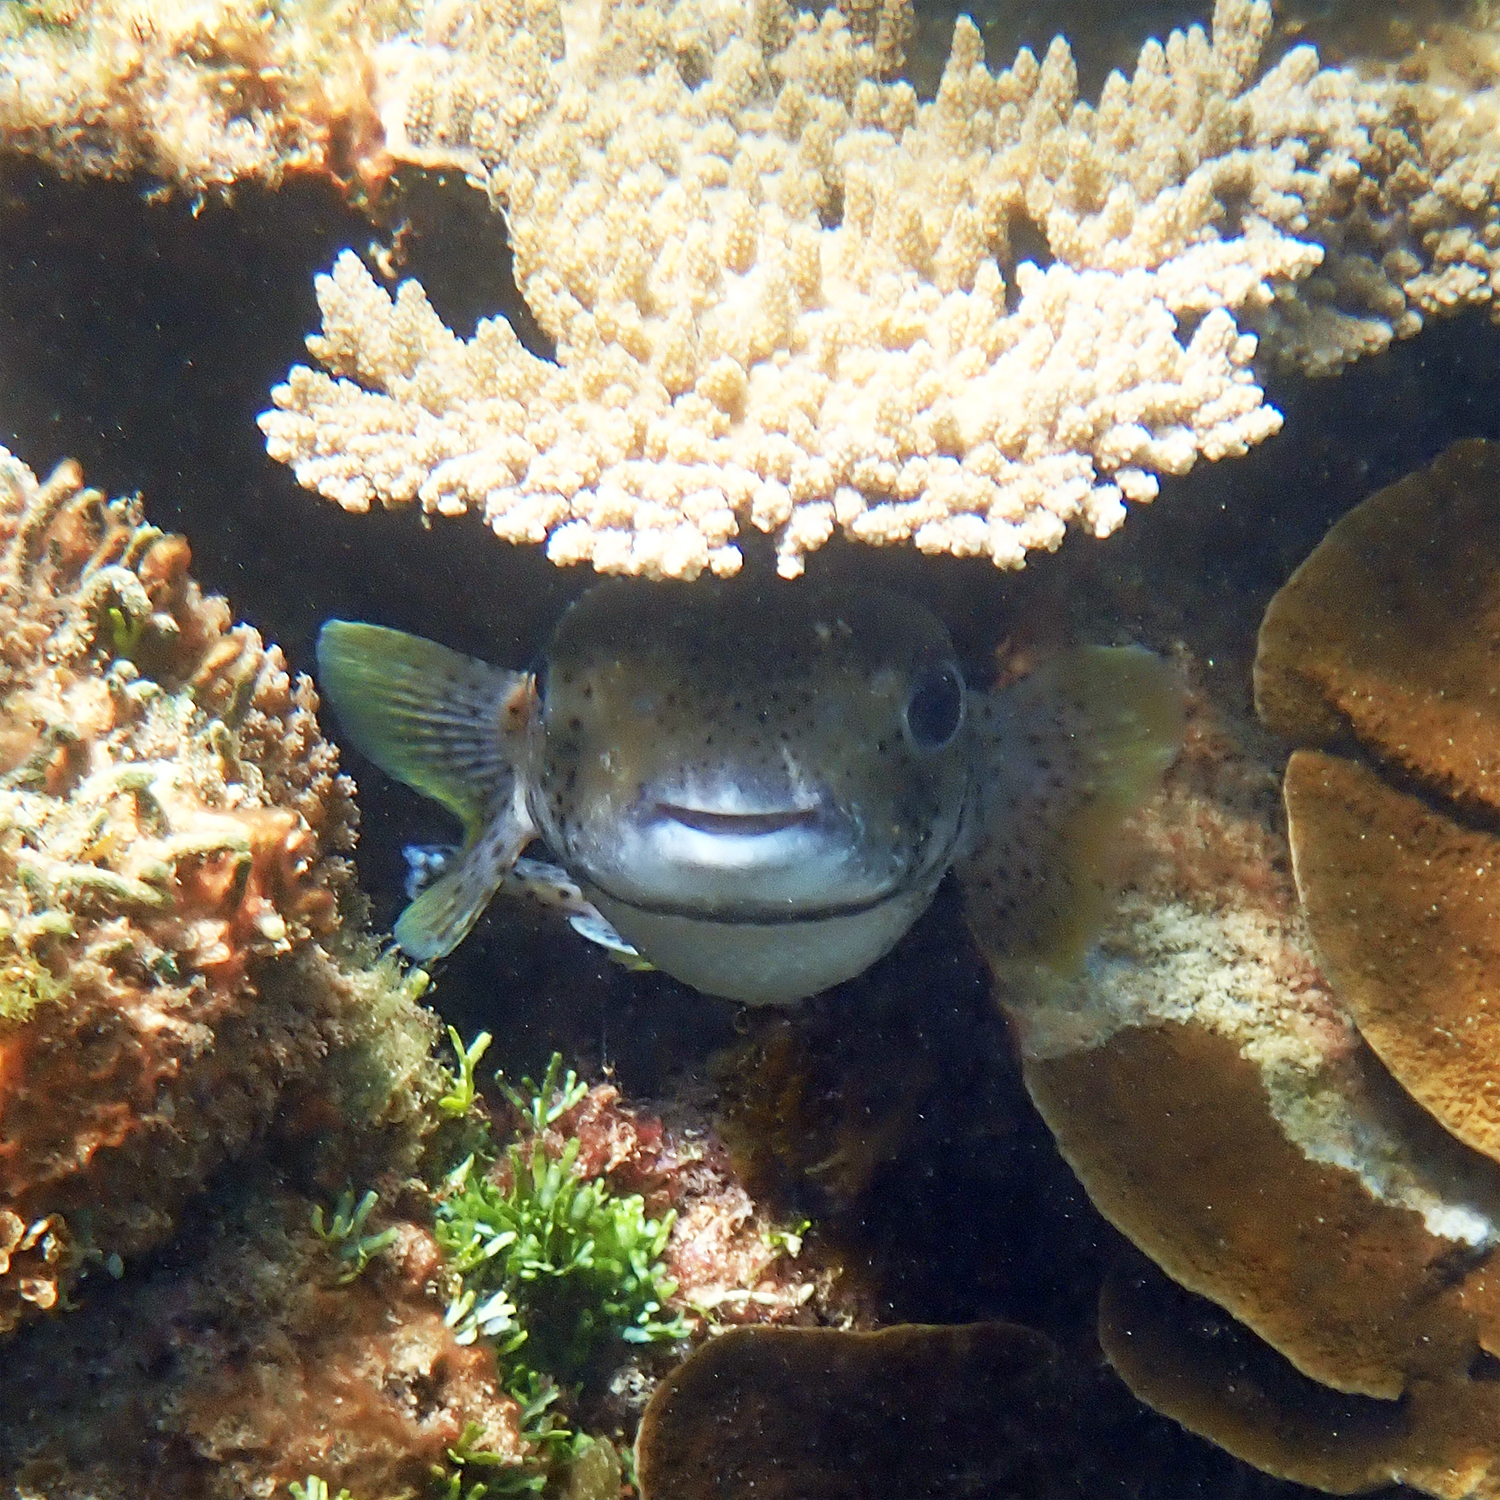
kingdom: Animalia
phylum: Chordata
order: Tetraodontiformes
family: Diodontidae
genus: Diodon
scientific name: Diodon hystrix
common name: Giant porcupinefish
